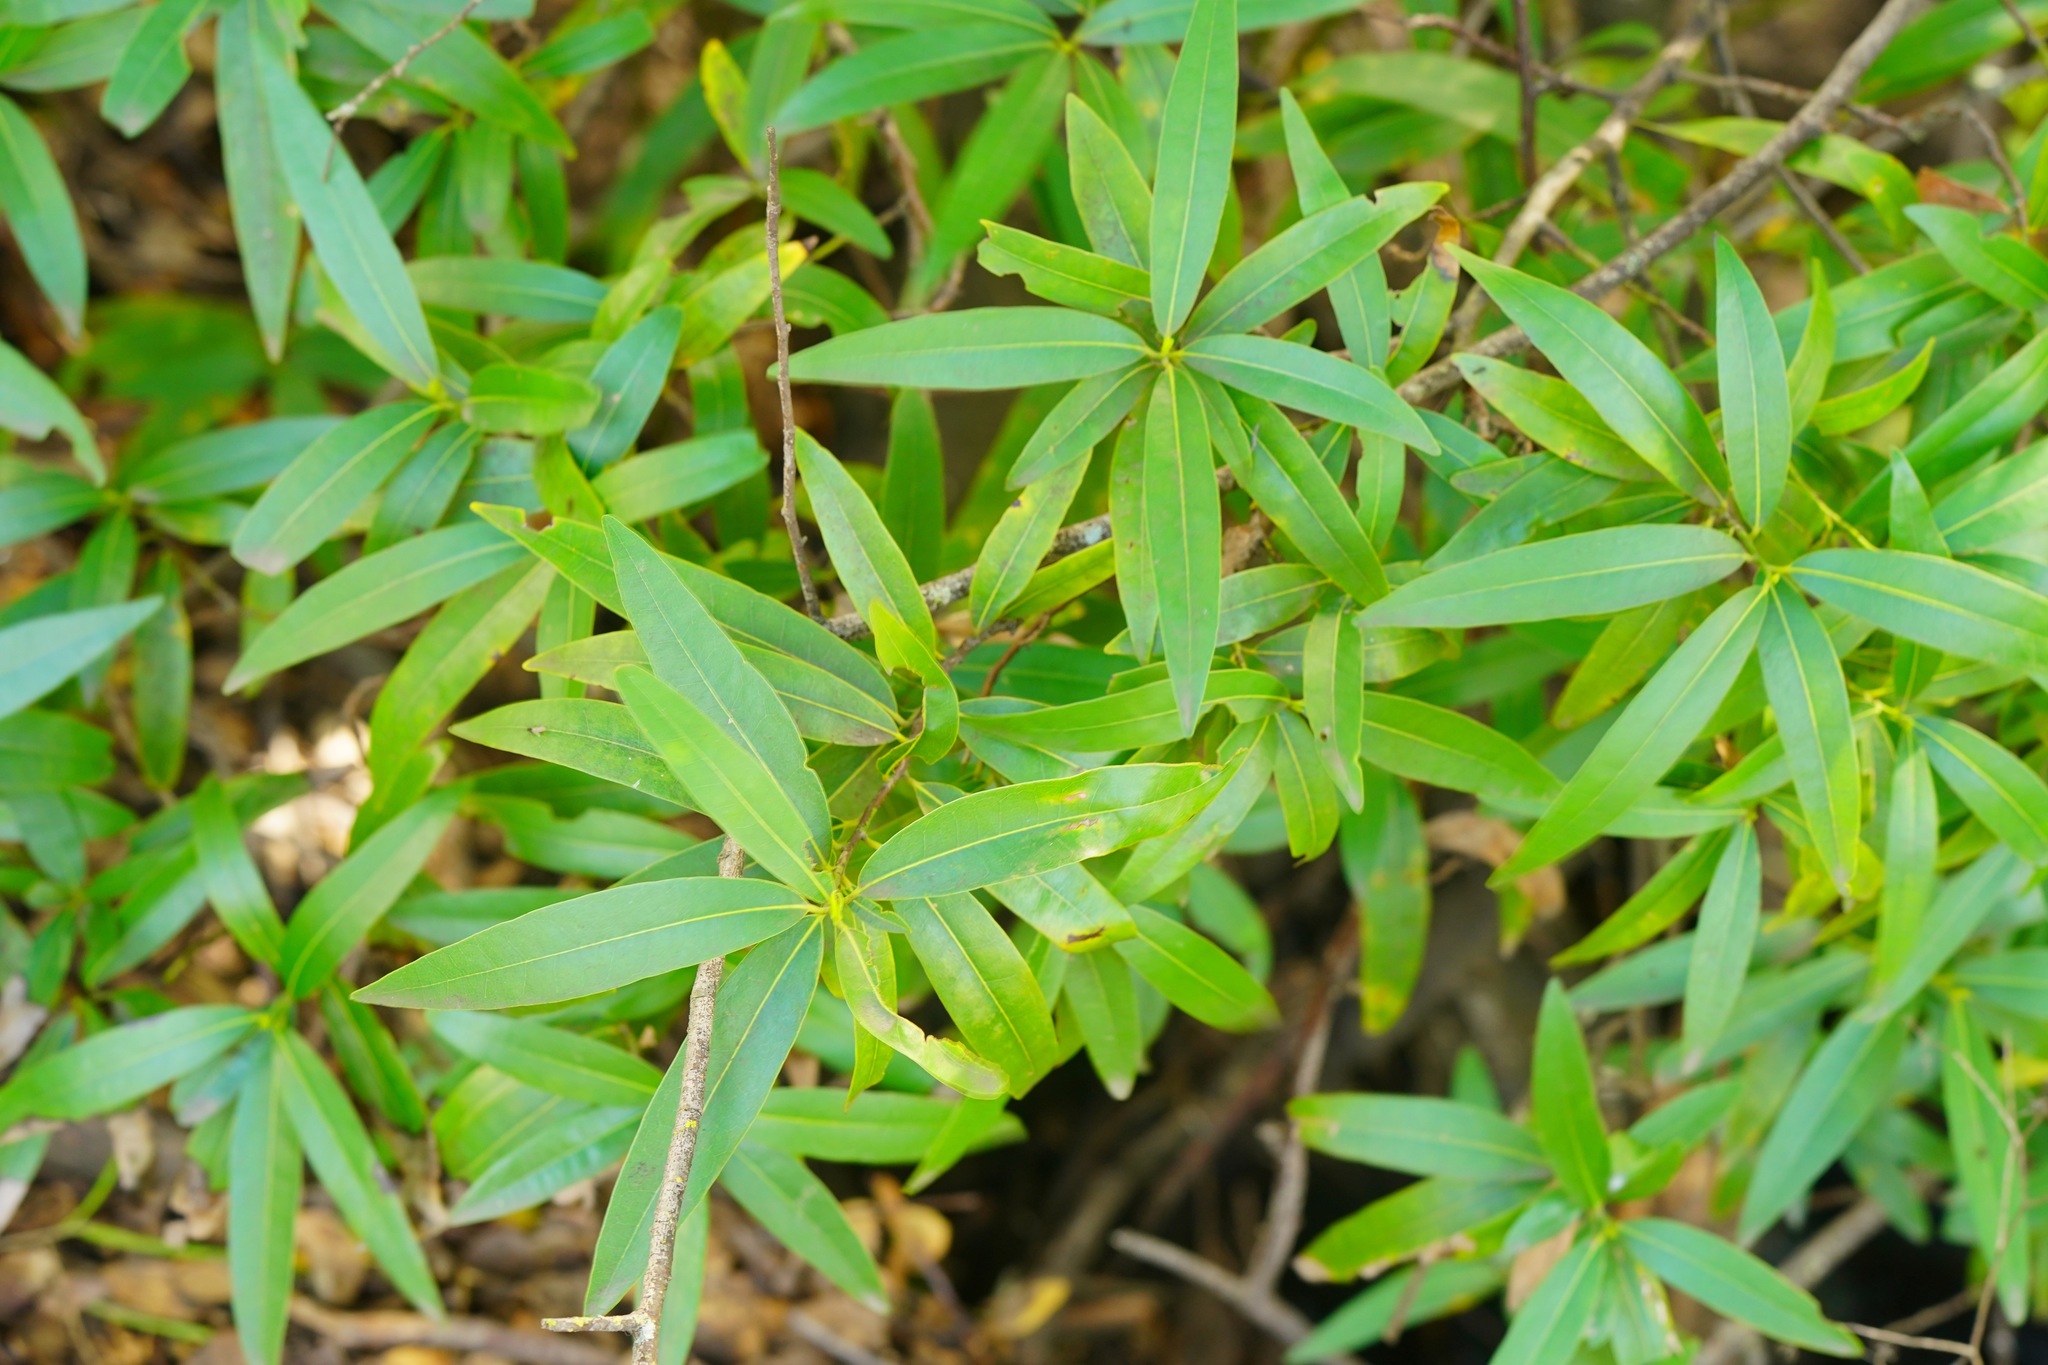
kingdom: Plantae
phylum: Tracheophyta
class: Magnoliopsida
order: Laurales
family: Lauraceae
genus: Umbellularia
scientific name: Umbellularia californica
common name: California bay
